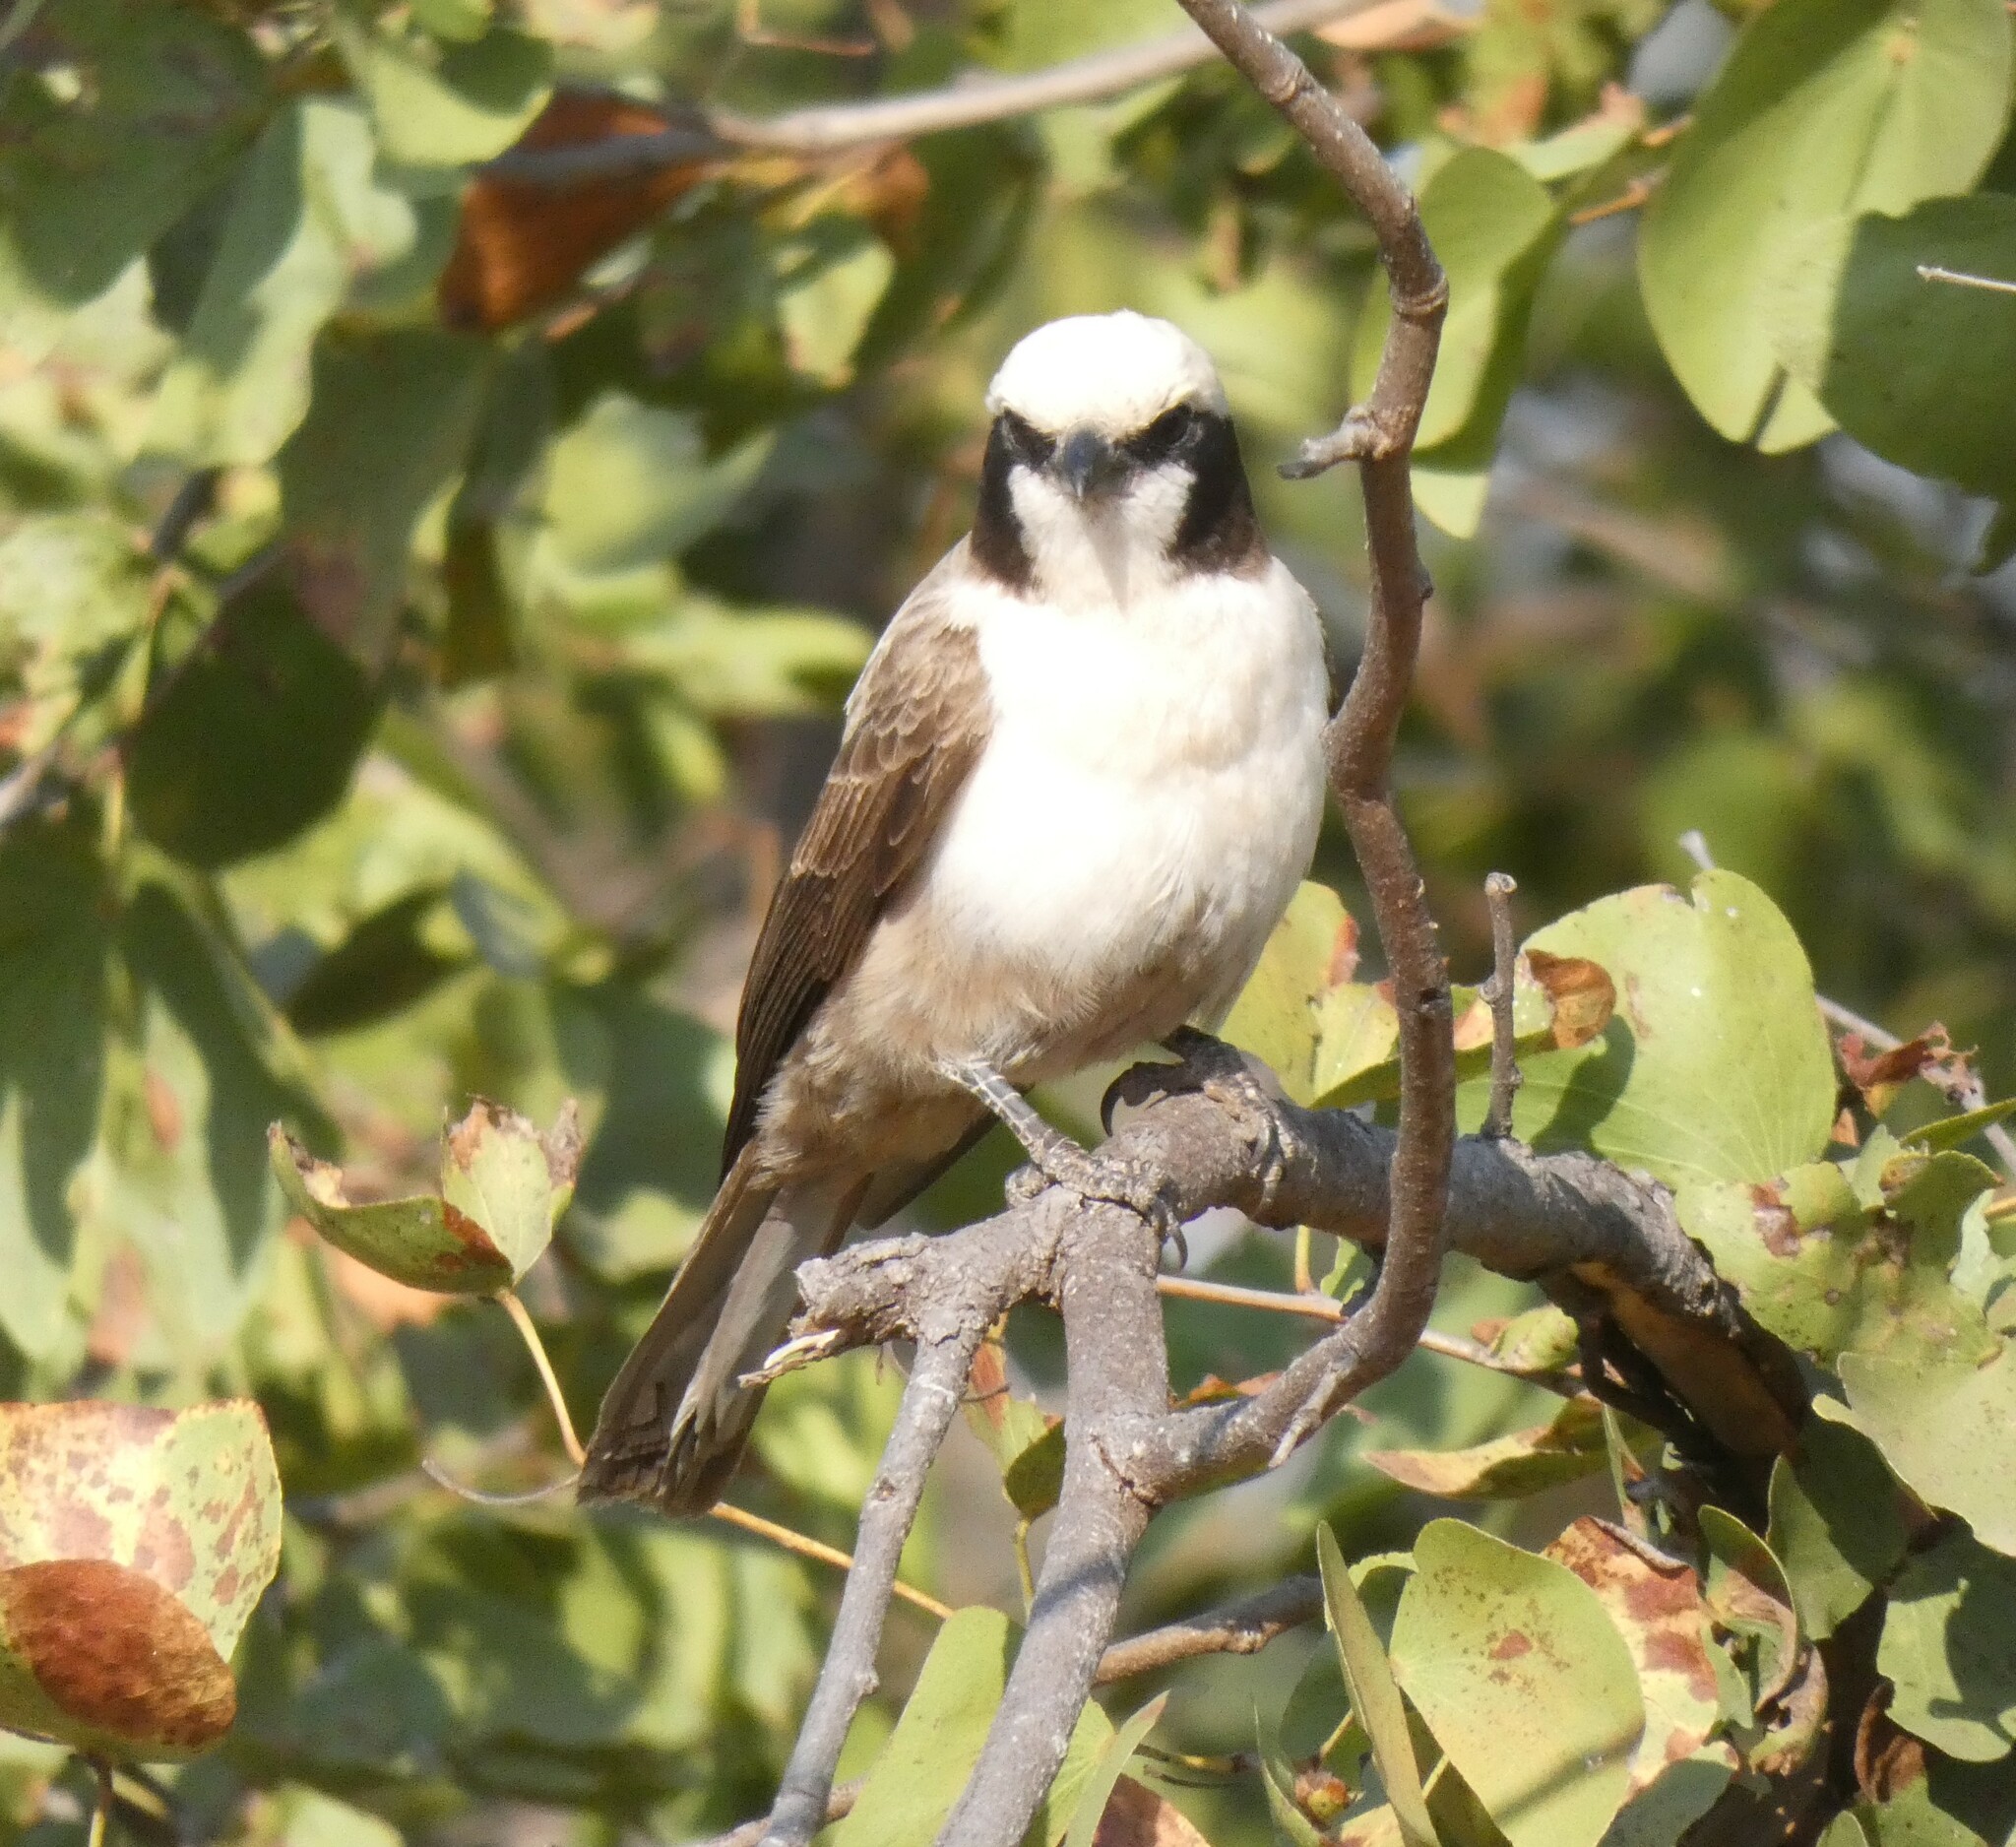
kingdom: Animalia
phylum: Chordata
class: Aves
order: Passeriformes
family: Laniidae
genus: Eurocephalus
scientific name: Eurocephalus anguitimens
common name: Southern white-crowned shrike
